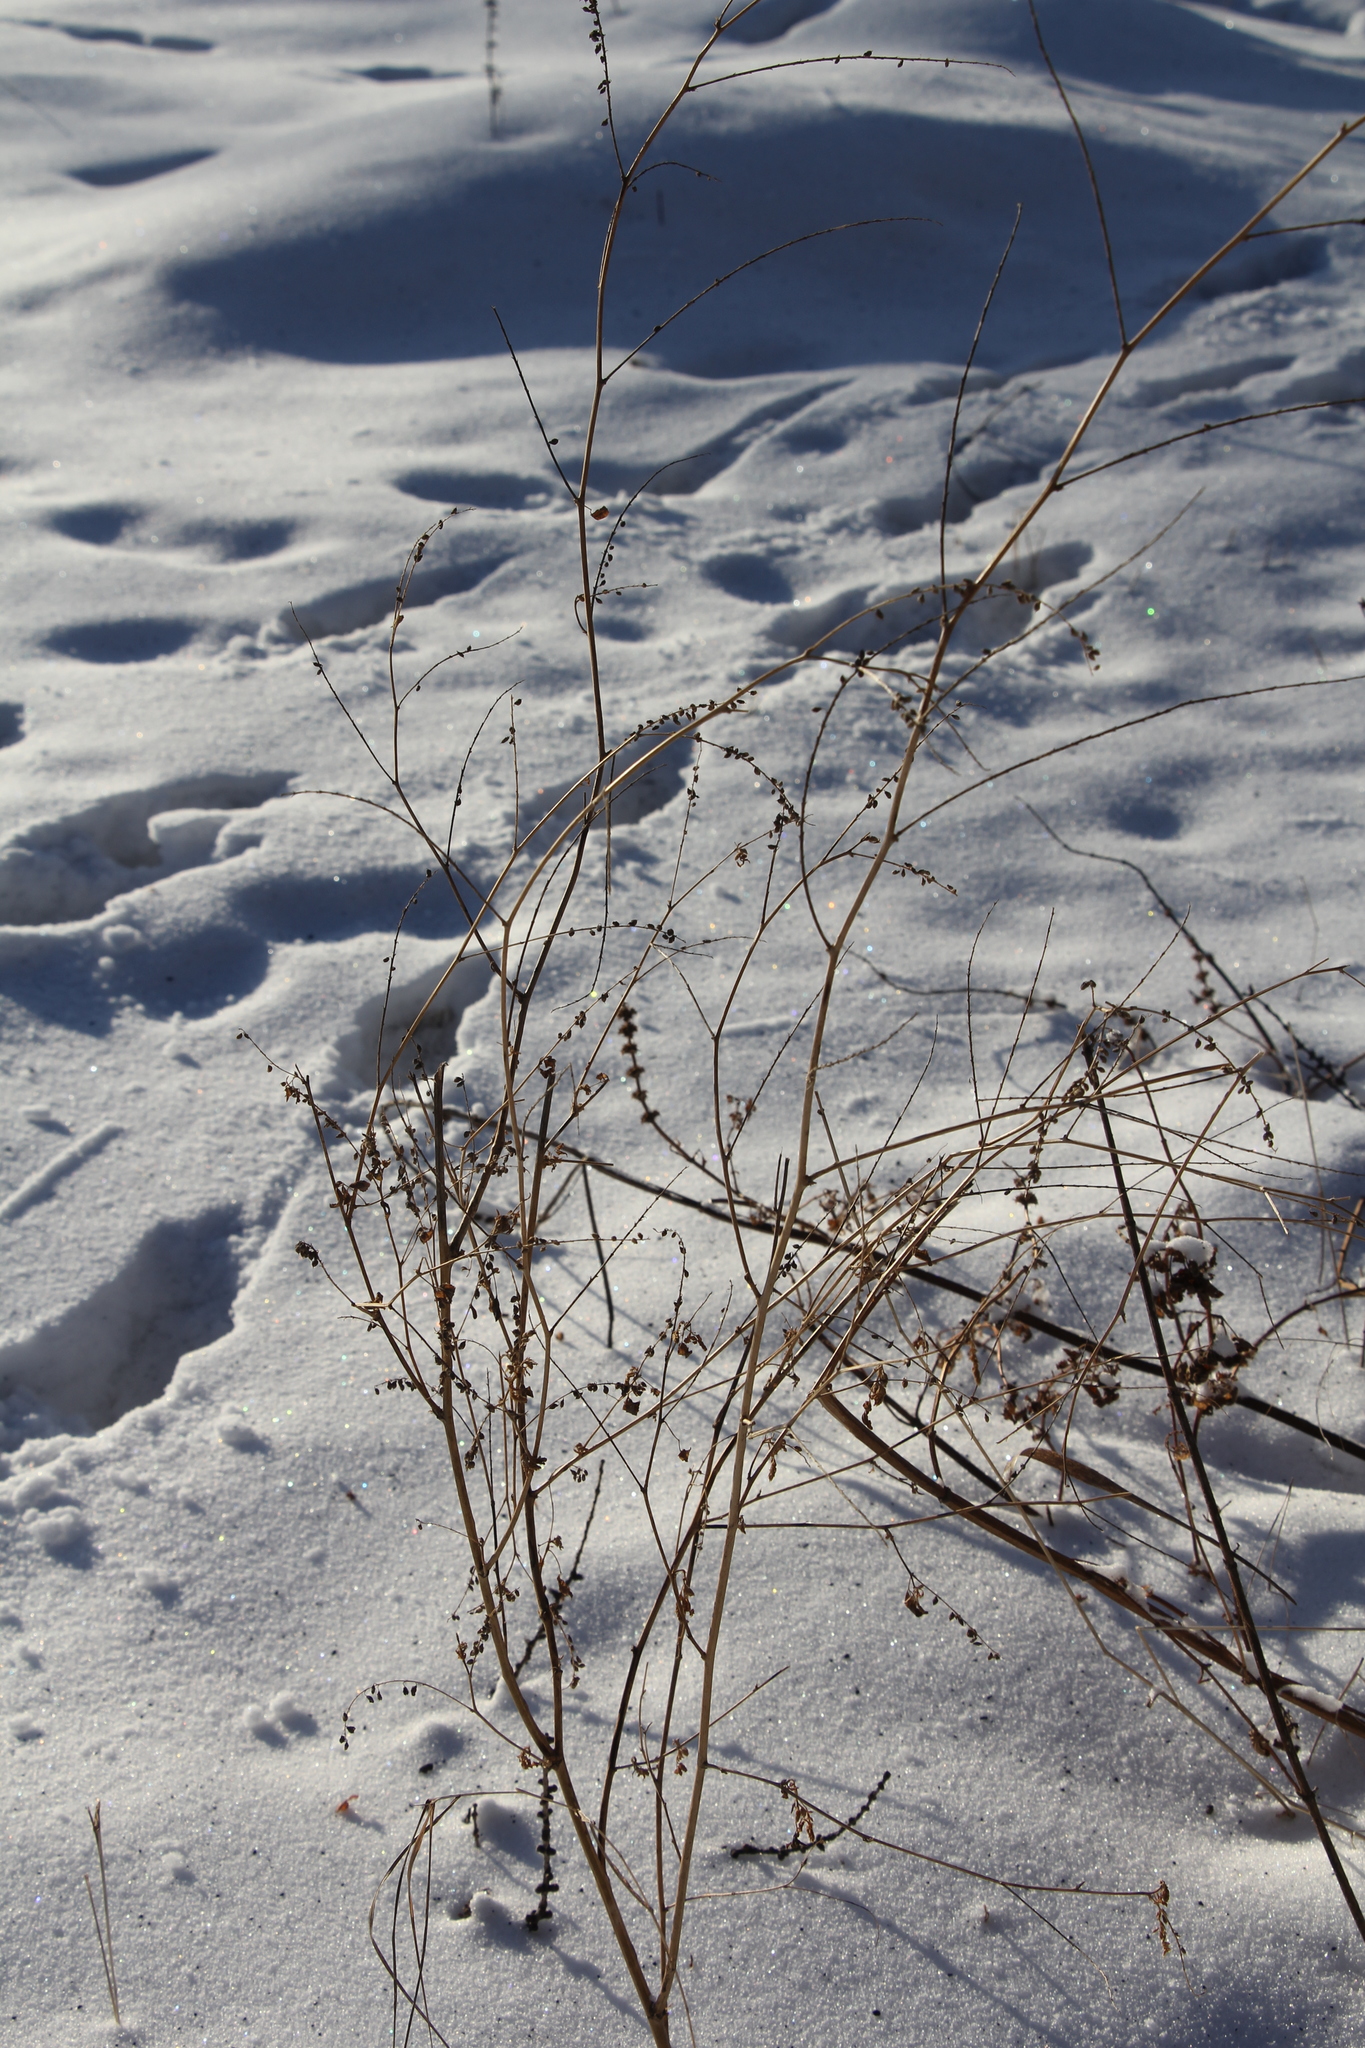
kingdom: Plantae
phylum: Tracheophyta
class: Magnoliopsida
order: Fabales
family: Fabaceae
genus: Melilotus
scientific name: Melilotus albus
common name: White melilot
